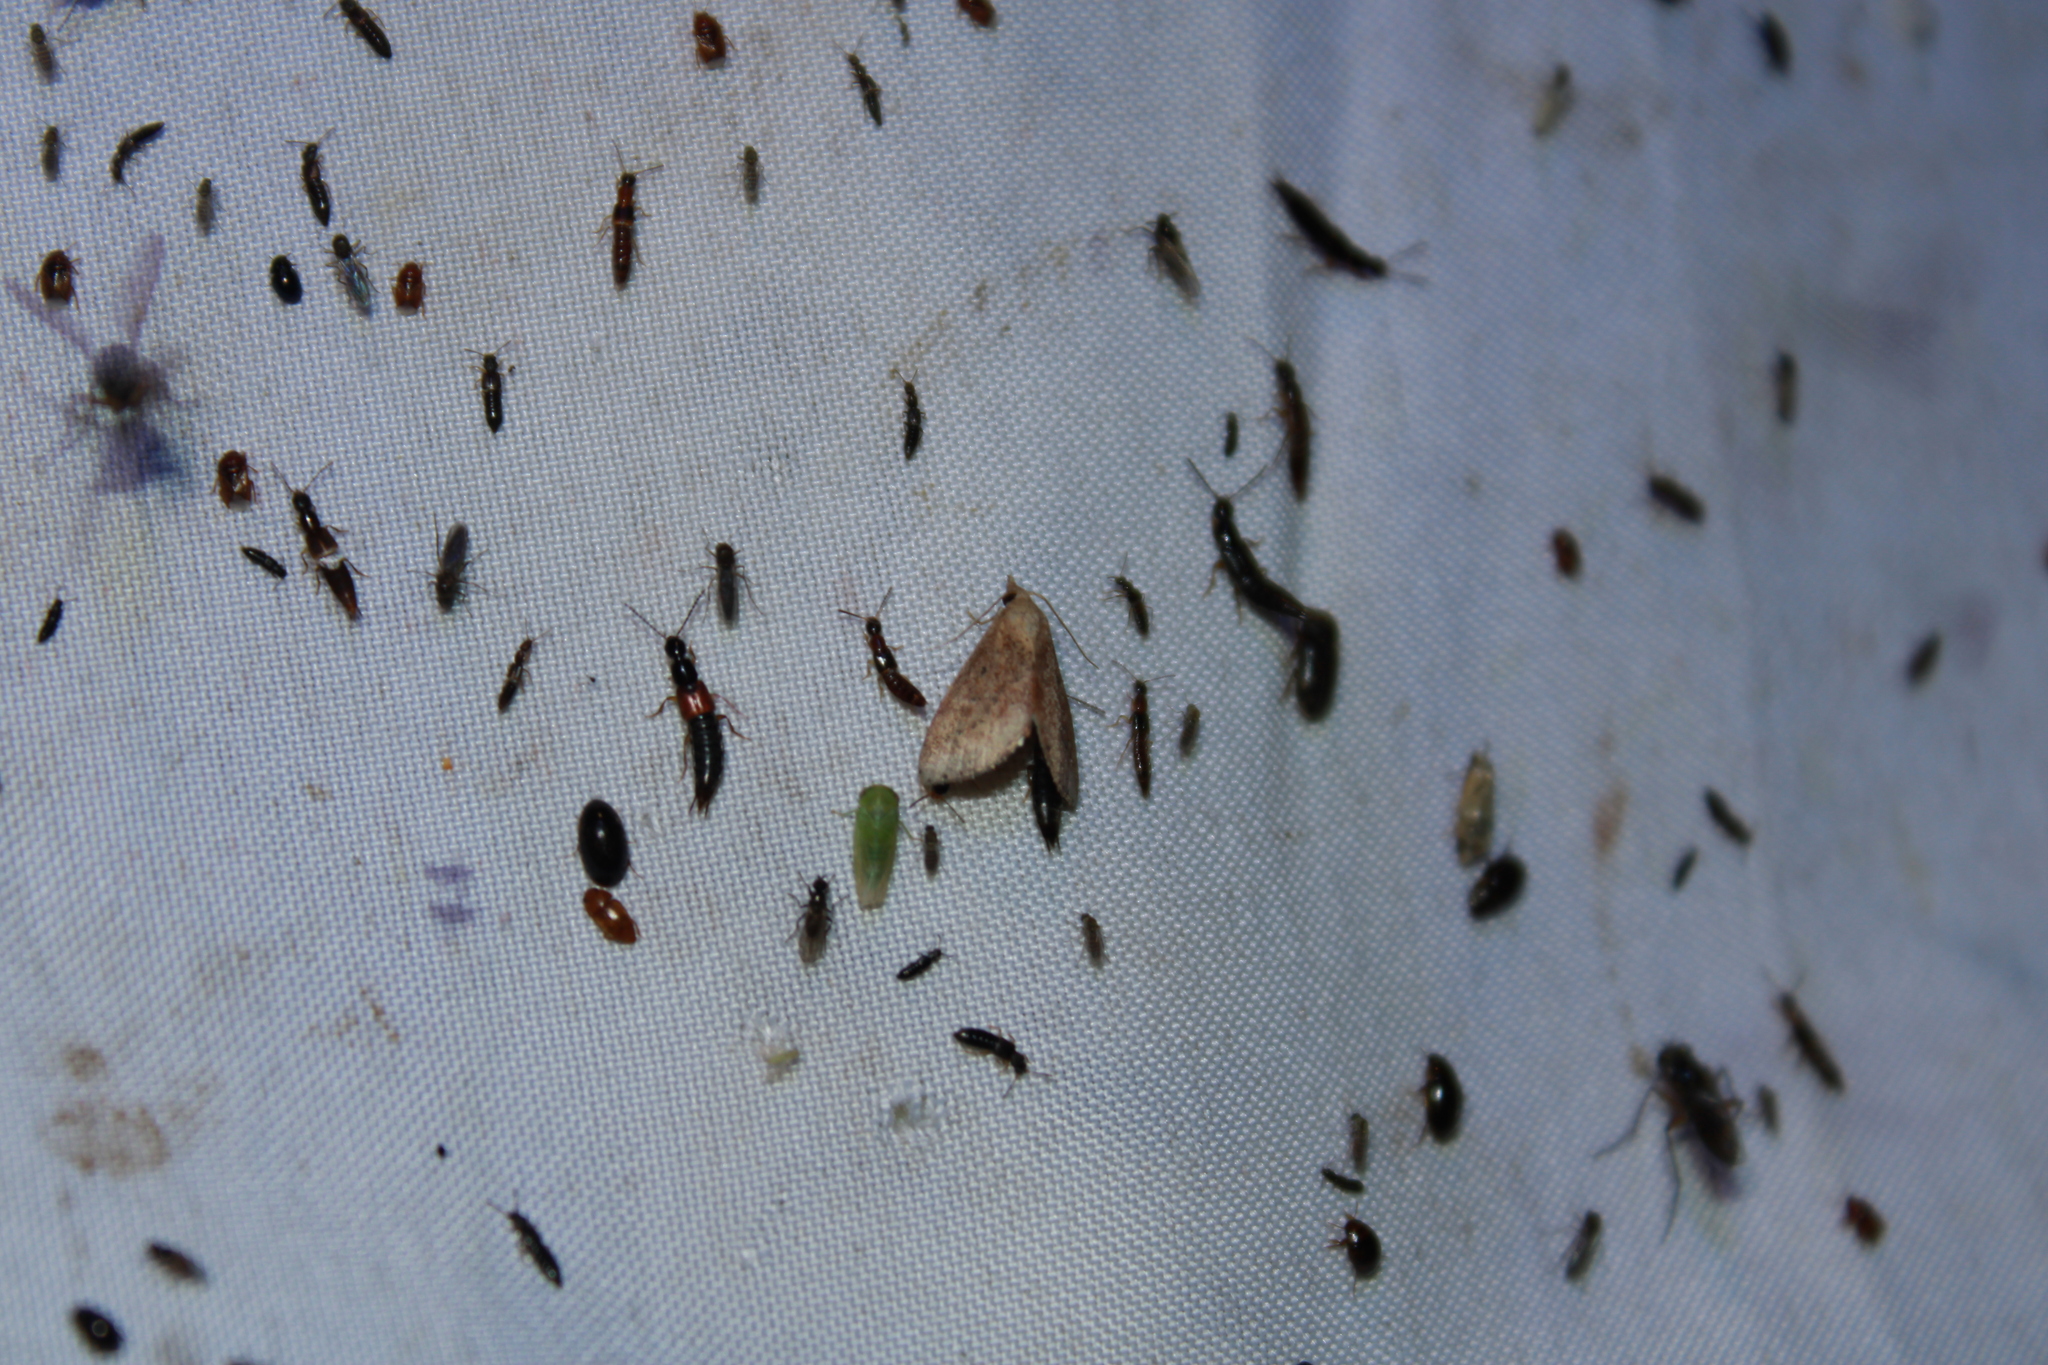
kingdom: Animalia
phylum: Arthropoda
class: Insecta
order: Lepidoptera
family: Noctuidae
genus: Proroblemma
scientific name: Proroblemma testa
